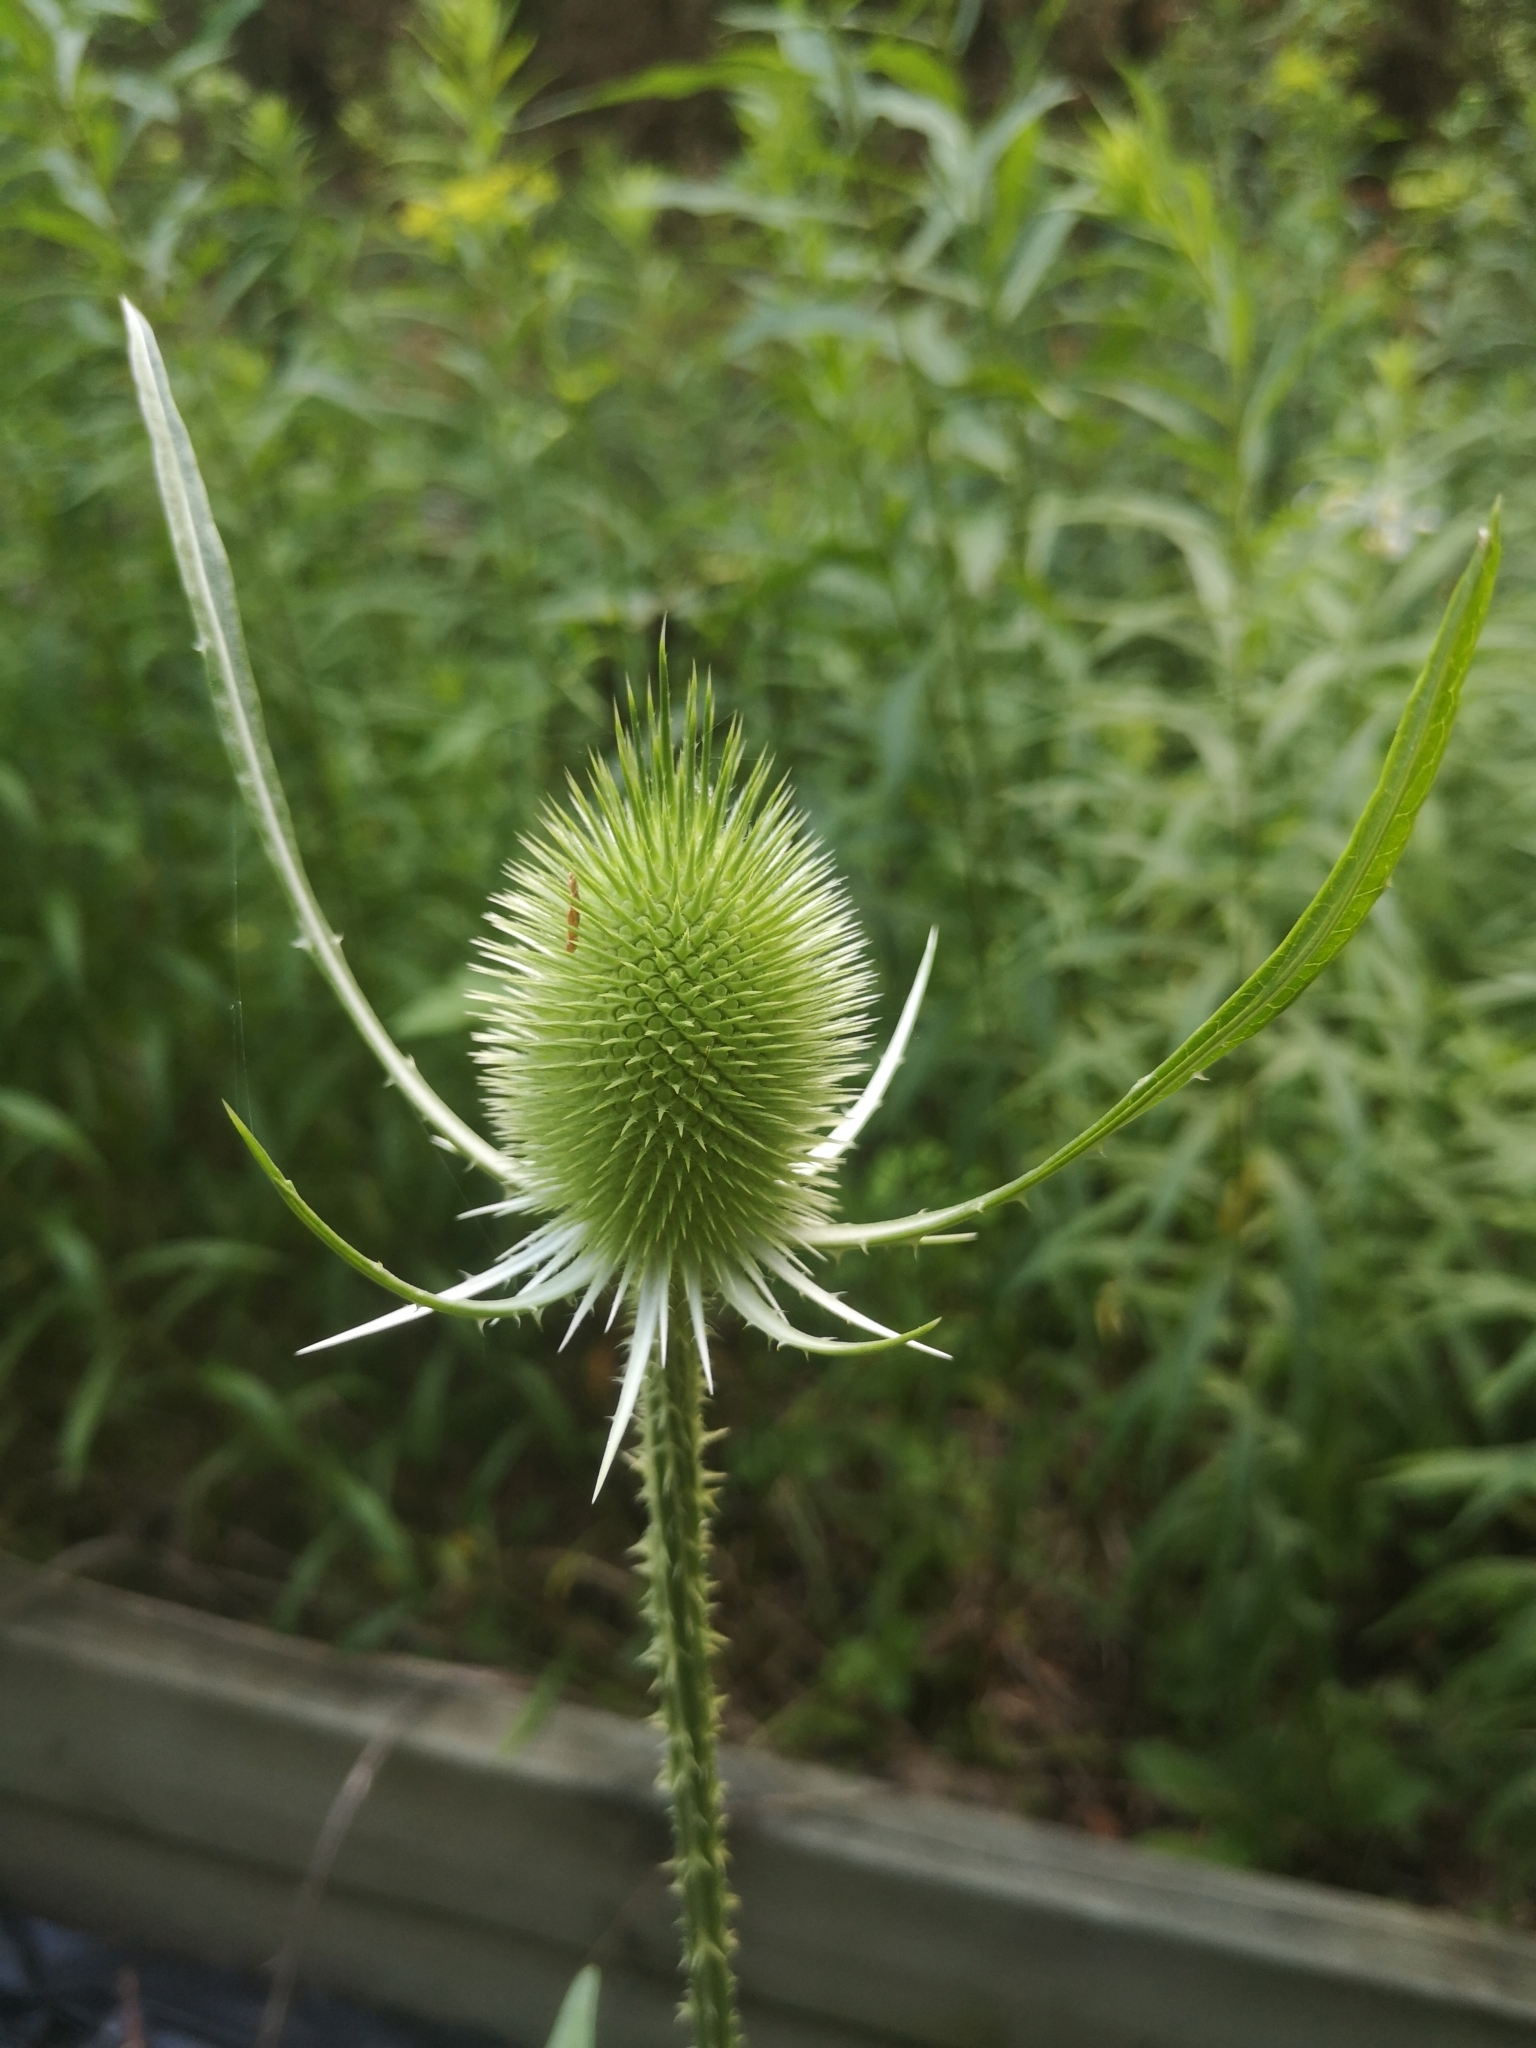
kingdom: Plantae
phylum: Tracheophyta
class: Magnoliopsida
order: Dipsacales
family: Caprifoliaceae
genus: Dipsacus
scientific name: Dipsacus fullonum
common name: Teasel
